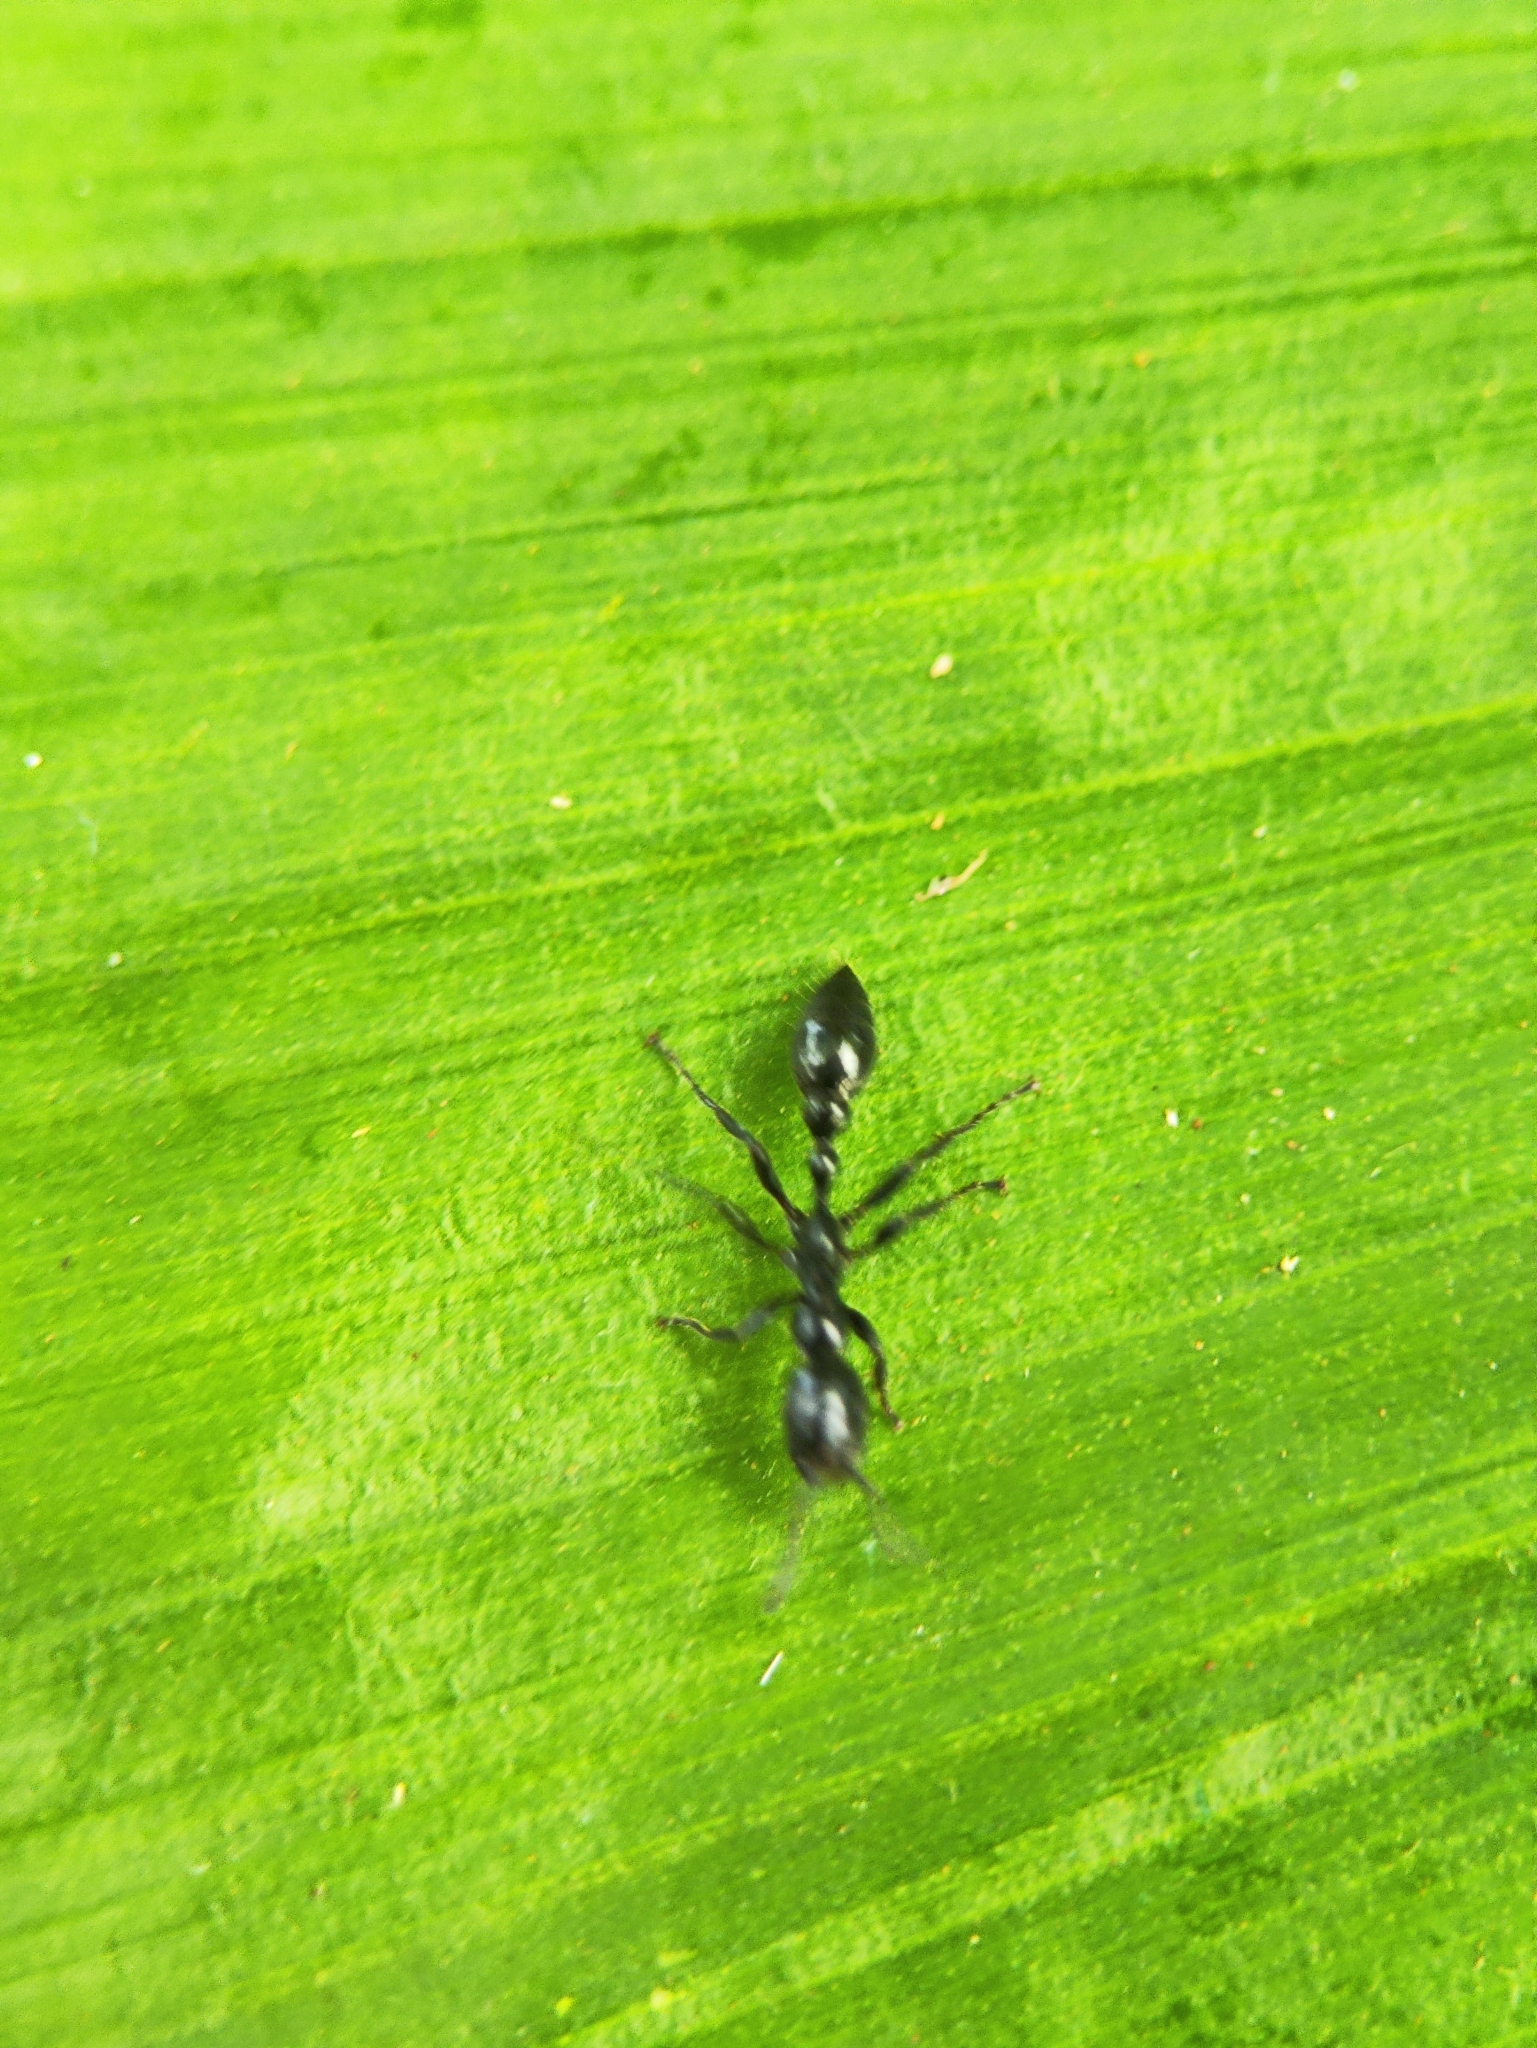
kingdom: Animalia
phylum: Arthropoda
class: Insecta
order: Hymenoptera
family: Formicidae
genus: Tetraponera
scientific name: Tetraponera nigra
